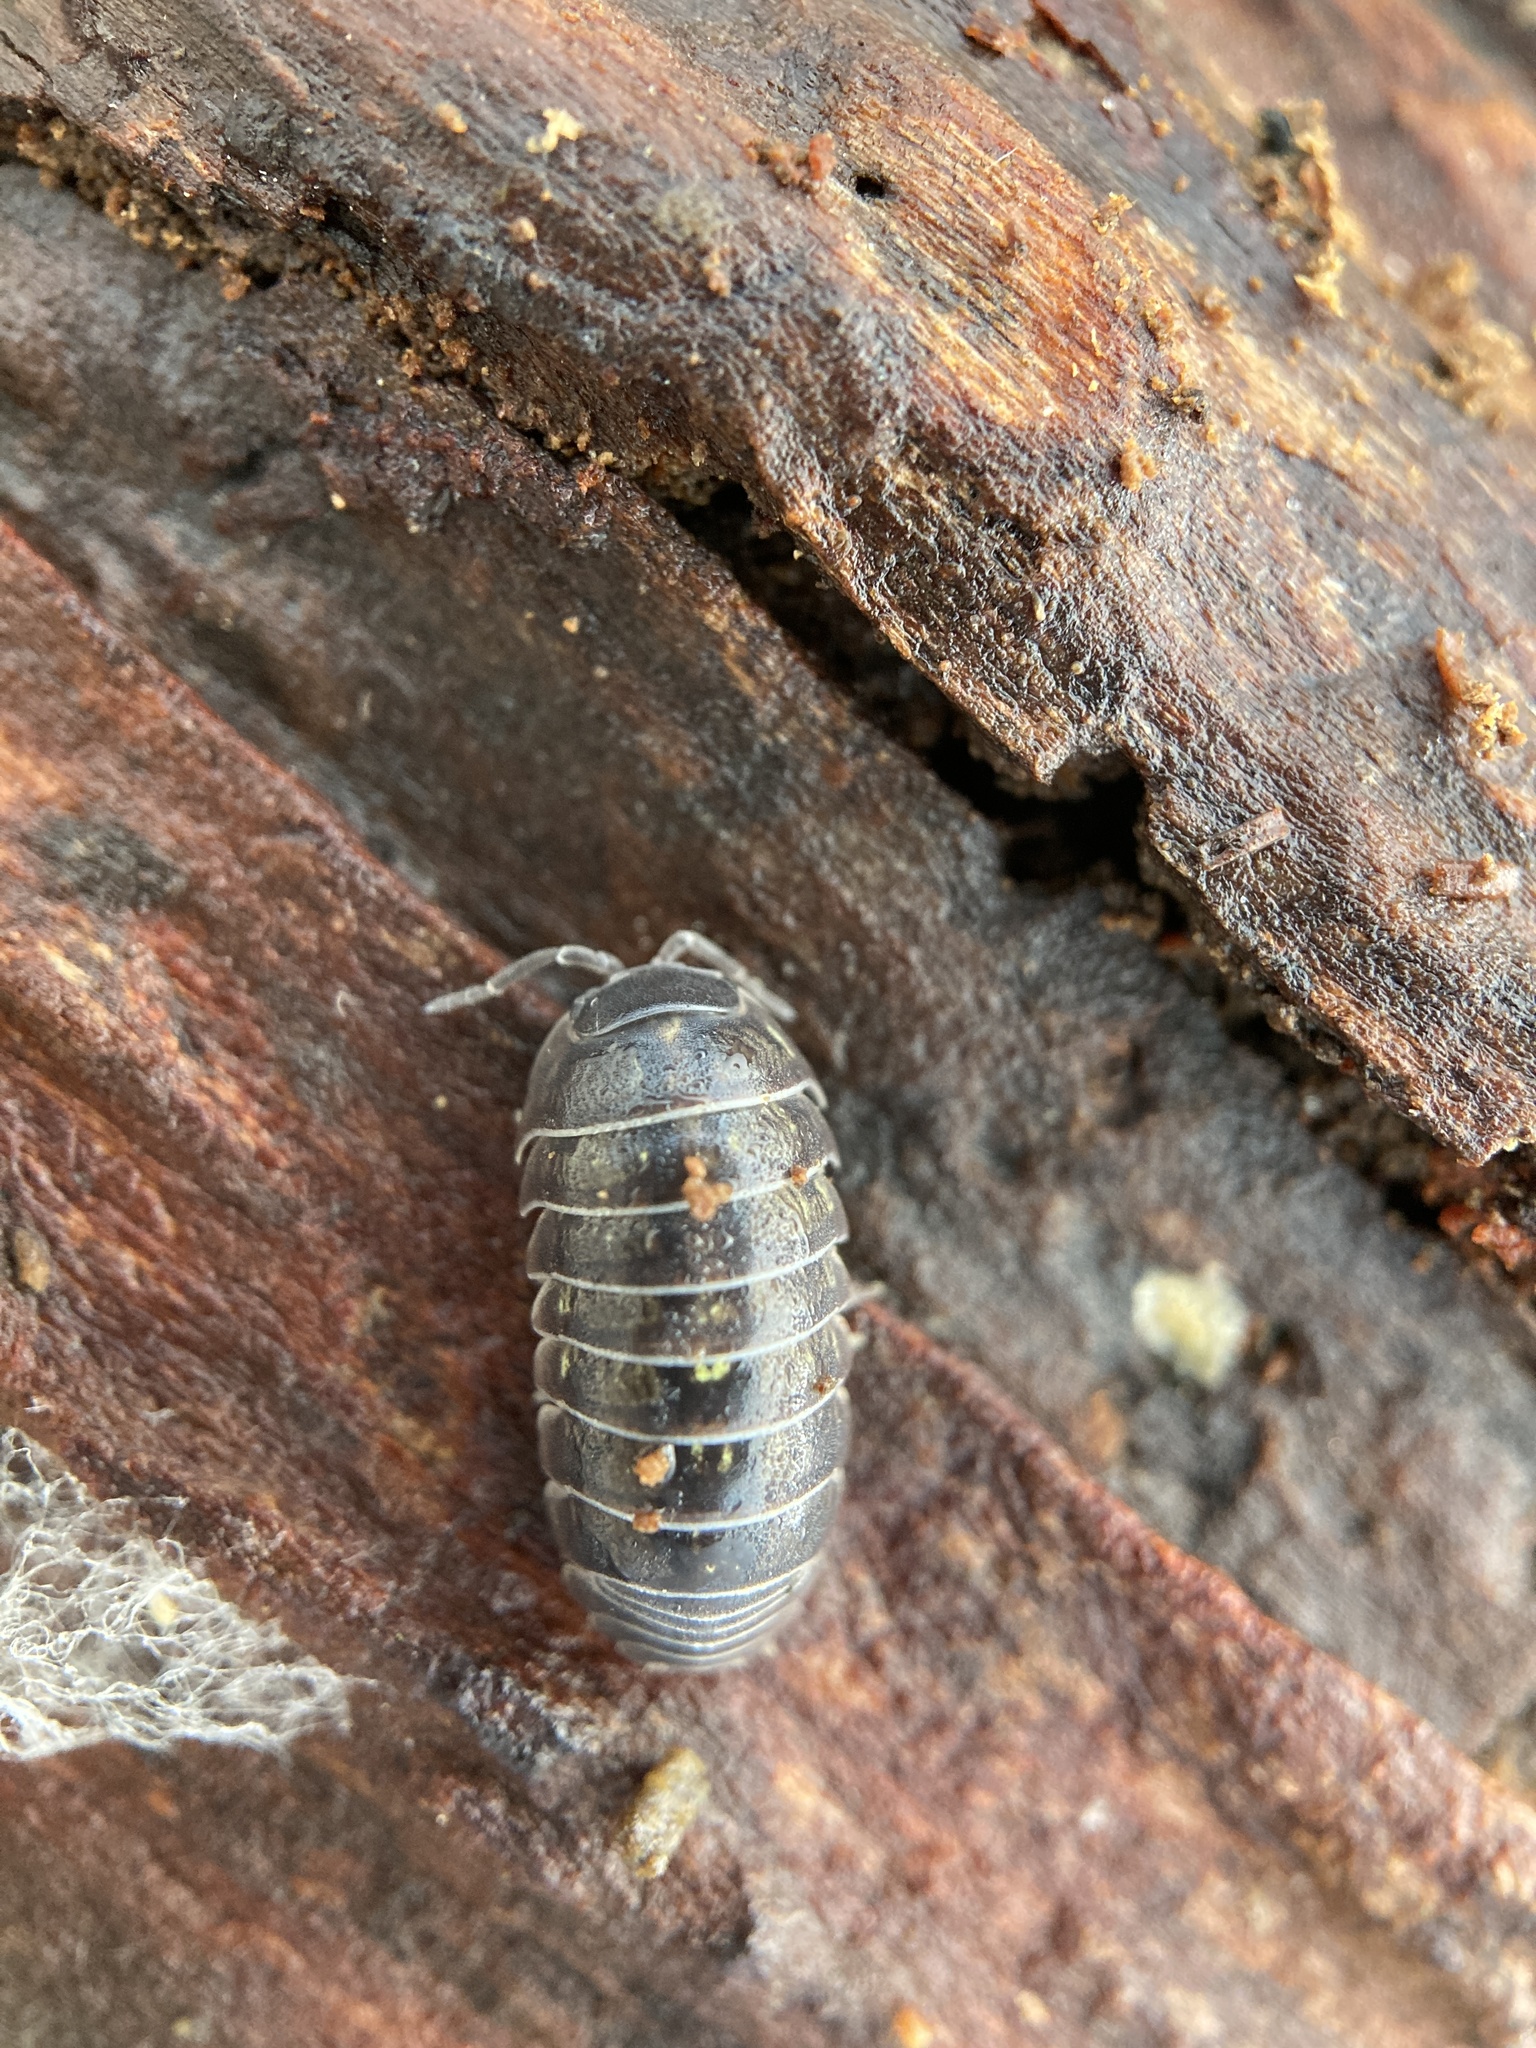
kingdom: Animalia
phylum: Arthropoda
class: Malacostraca
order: Isopoda
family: Armadillidiidae
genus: Armadillidium
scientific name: Armadillidium vulgare
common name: Common pill woodlouse
